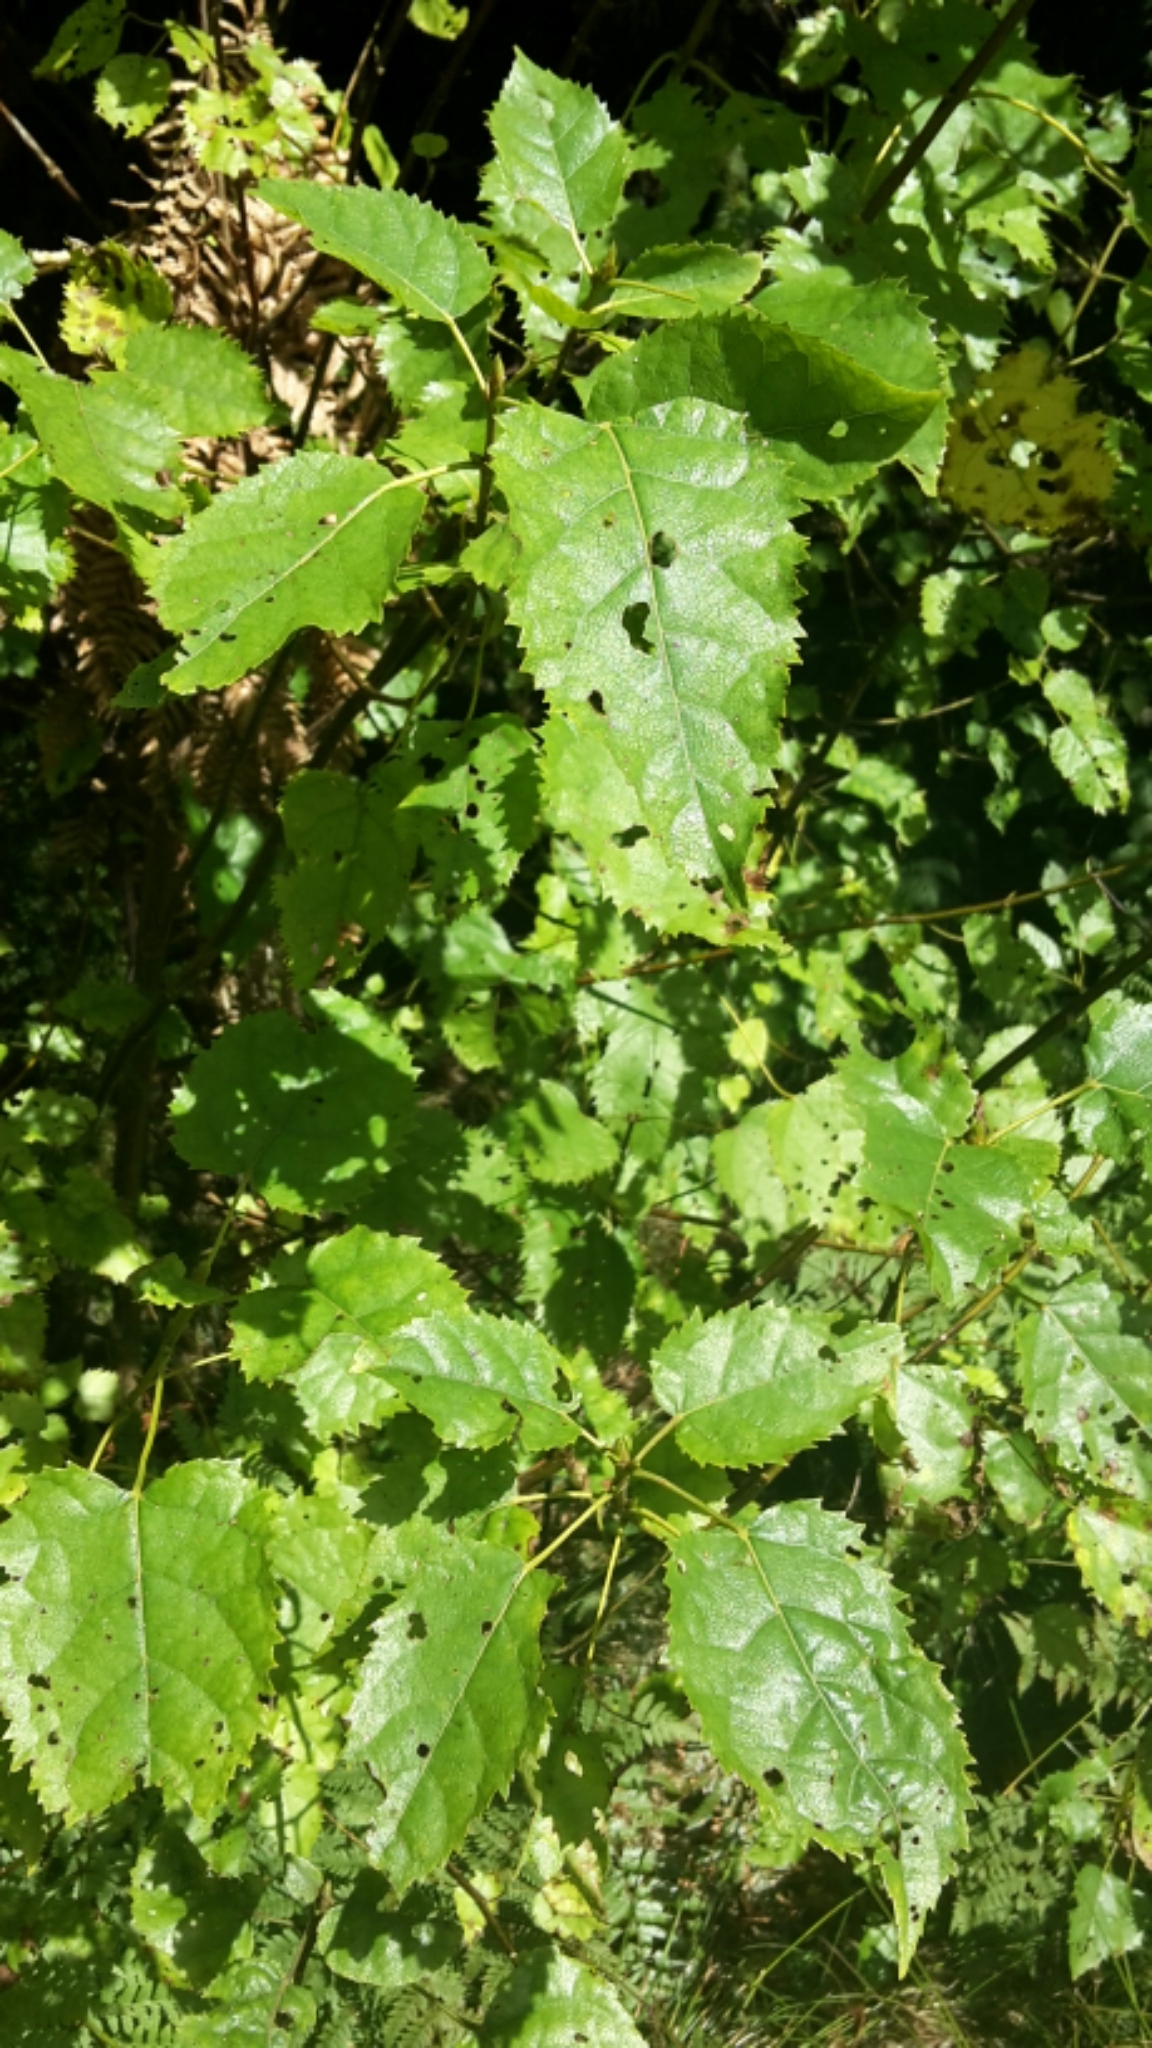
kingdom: Plantae
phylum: Tracheophyta
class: Magnoliopsida
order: Oxalidales
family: Elaeocarpaceae
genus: Aristotelia
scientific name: Aristotelia serrata
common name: New zealand wineberry
